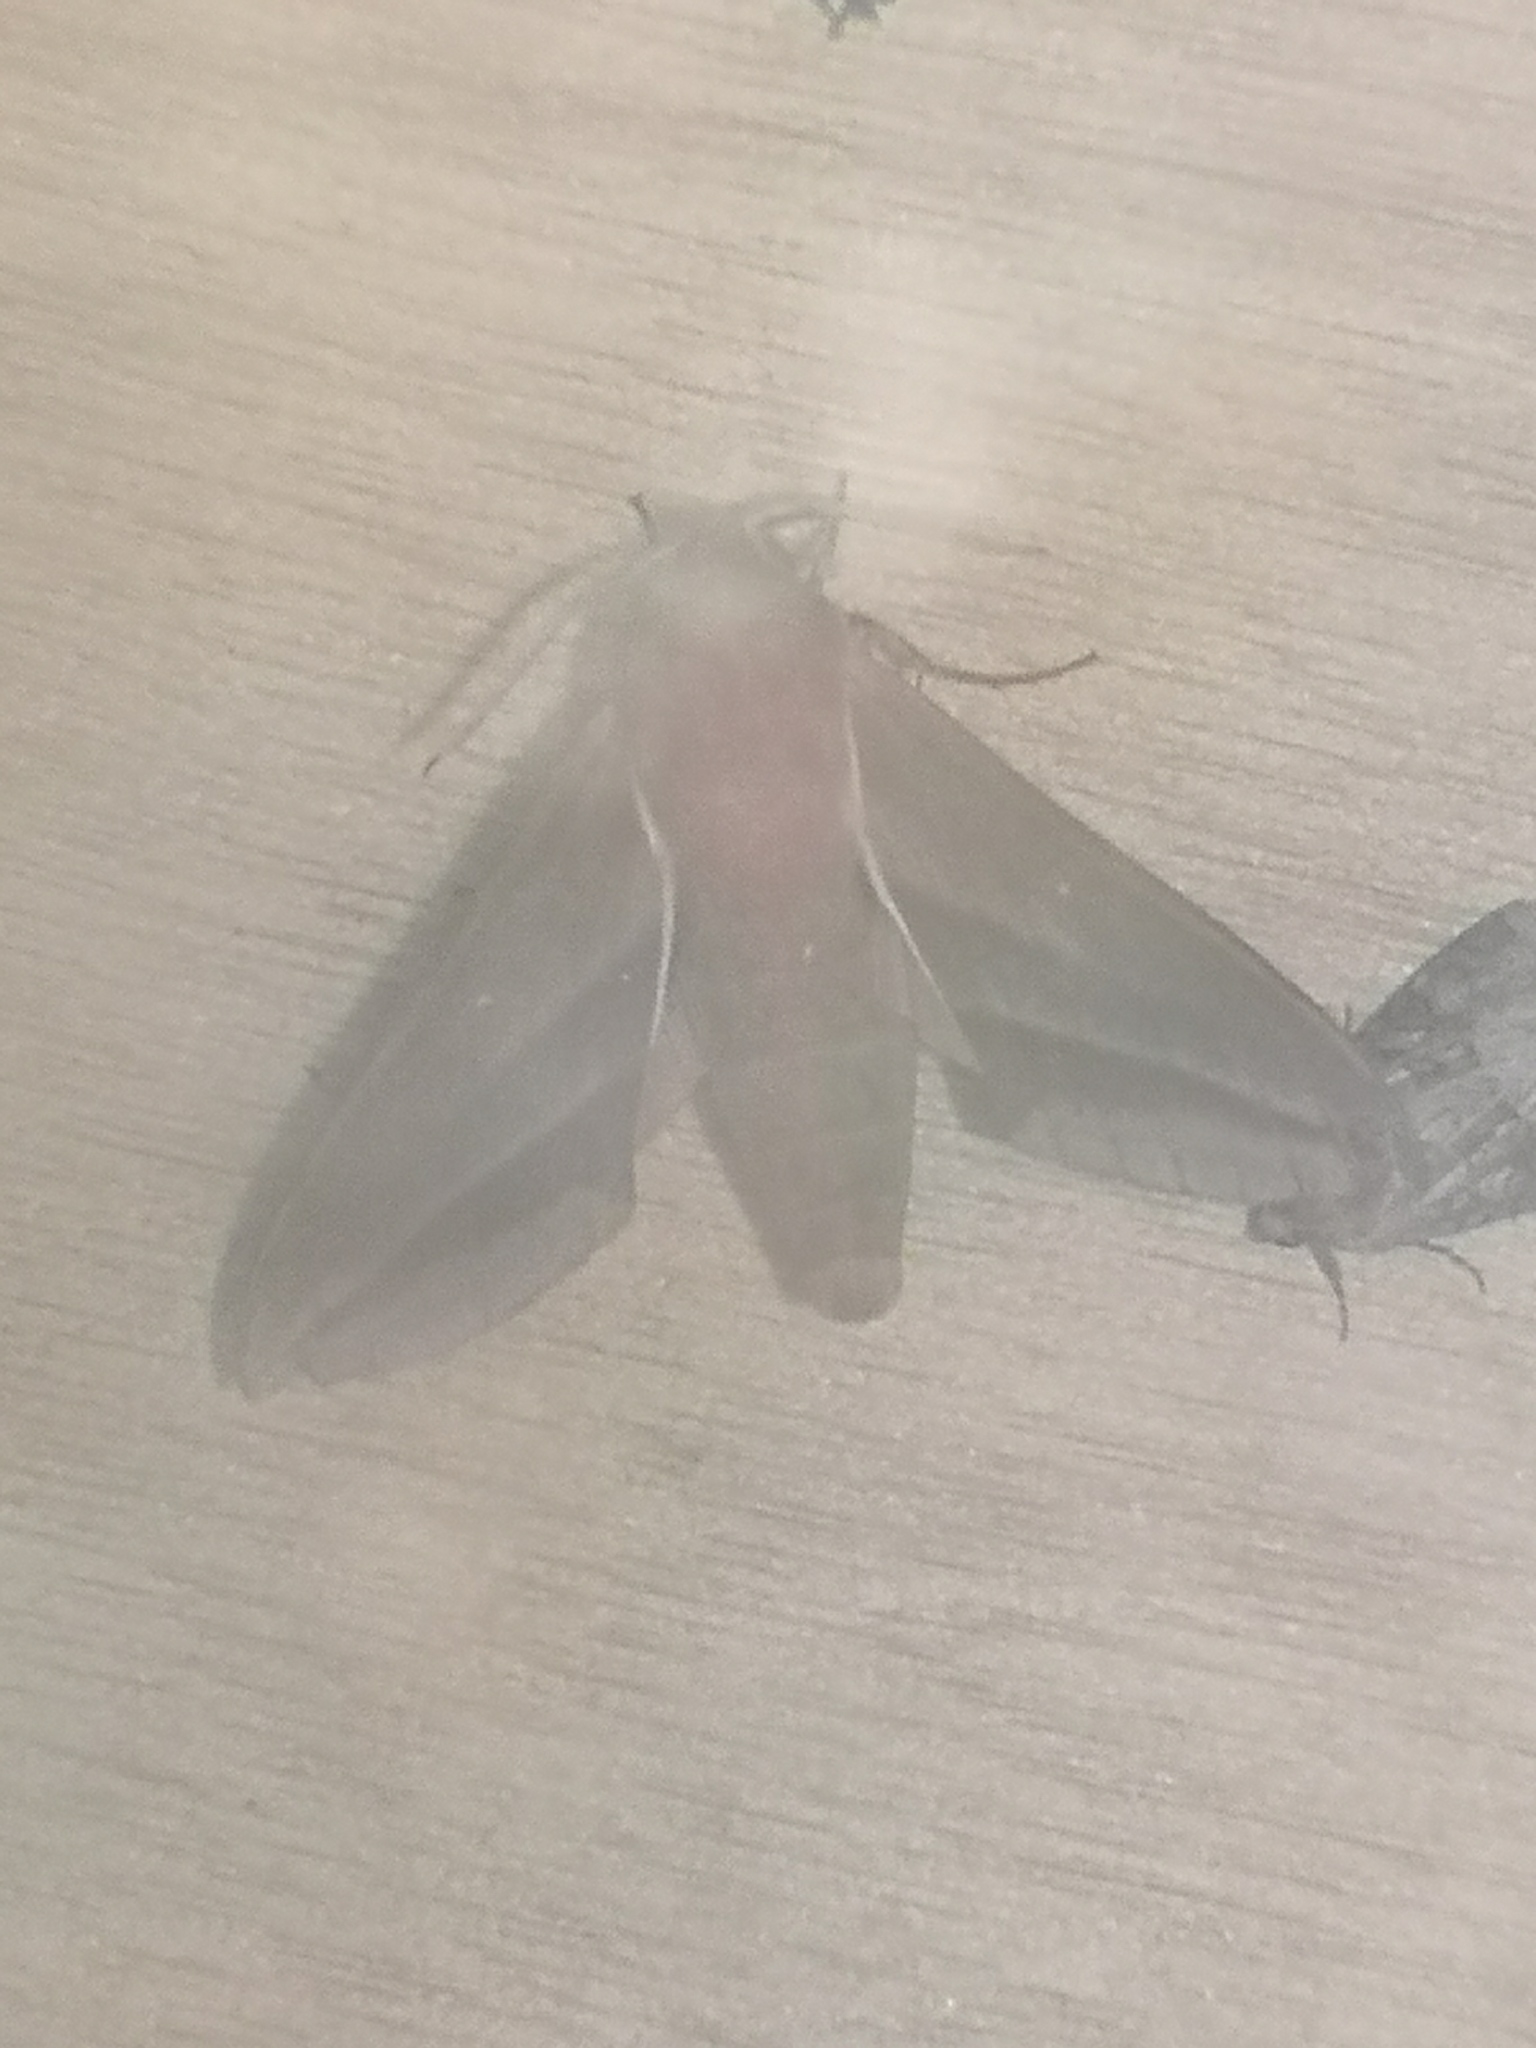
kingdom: Animalia
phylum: Arthropoda
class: Insecta
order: Lepidoptera
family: Sphingidae
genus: Deilephila
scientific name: Deilephila elpenor
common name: Elephant hawk-moth
